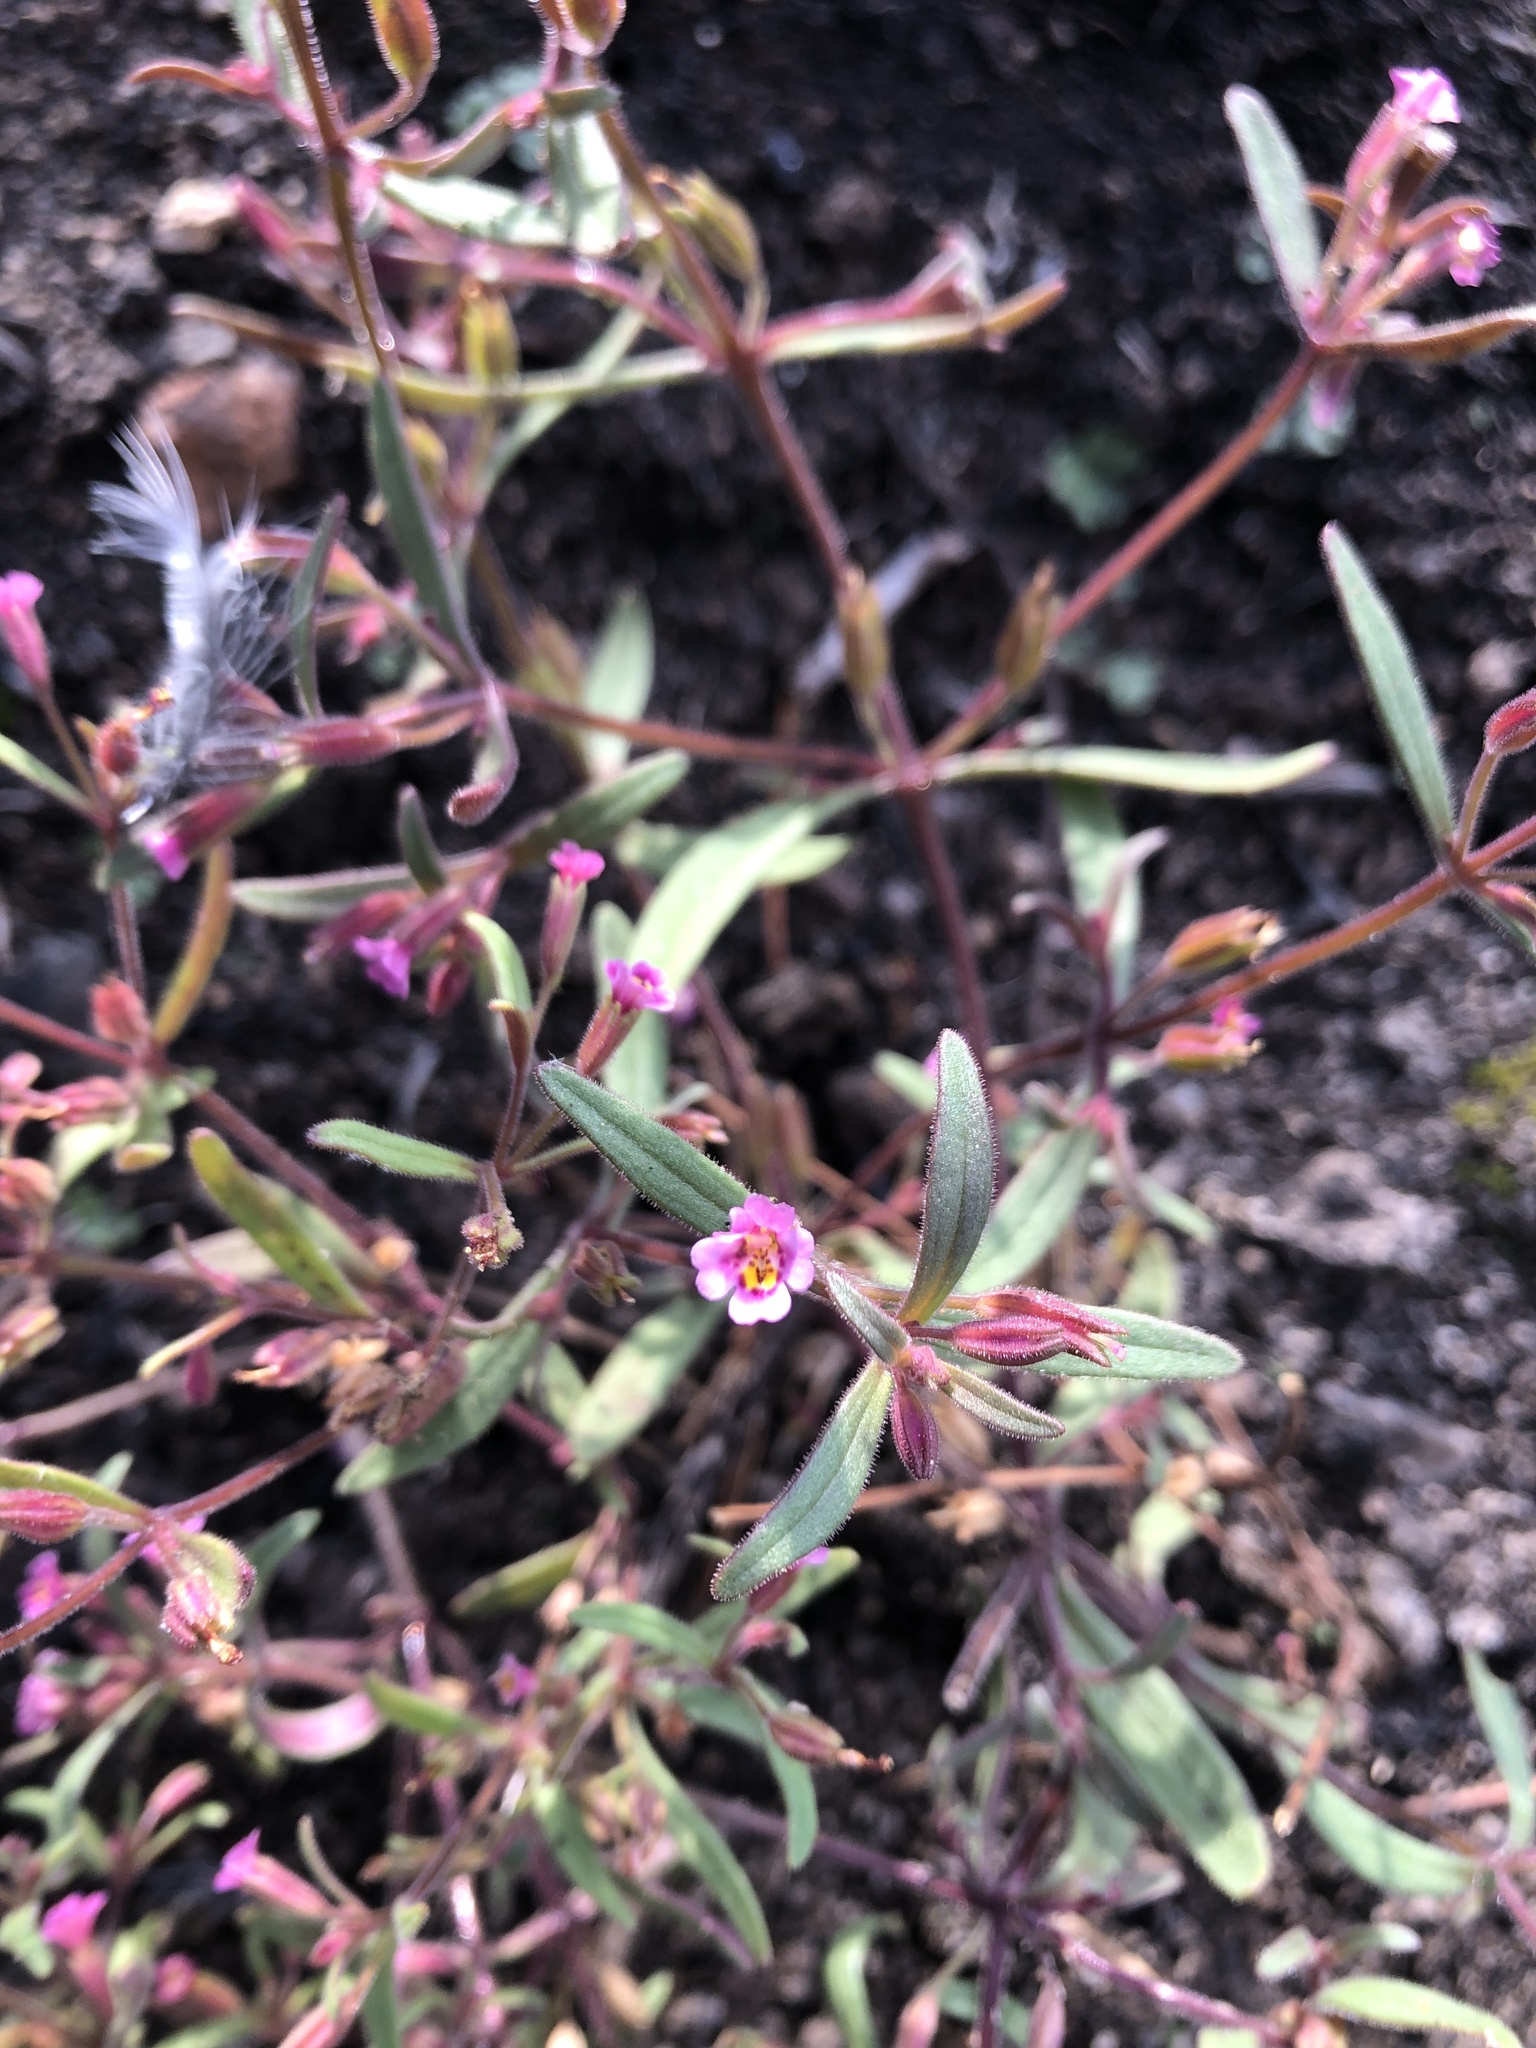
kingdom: Plantae
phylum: Tracheophyta
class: Magnoliopsida
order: Lamiales
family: Phrymaceae
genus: Erythranthe
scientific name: Erythranthe breweri
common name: Brewer's monkeyflower
